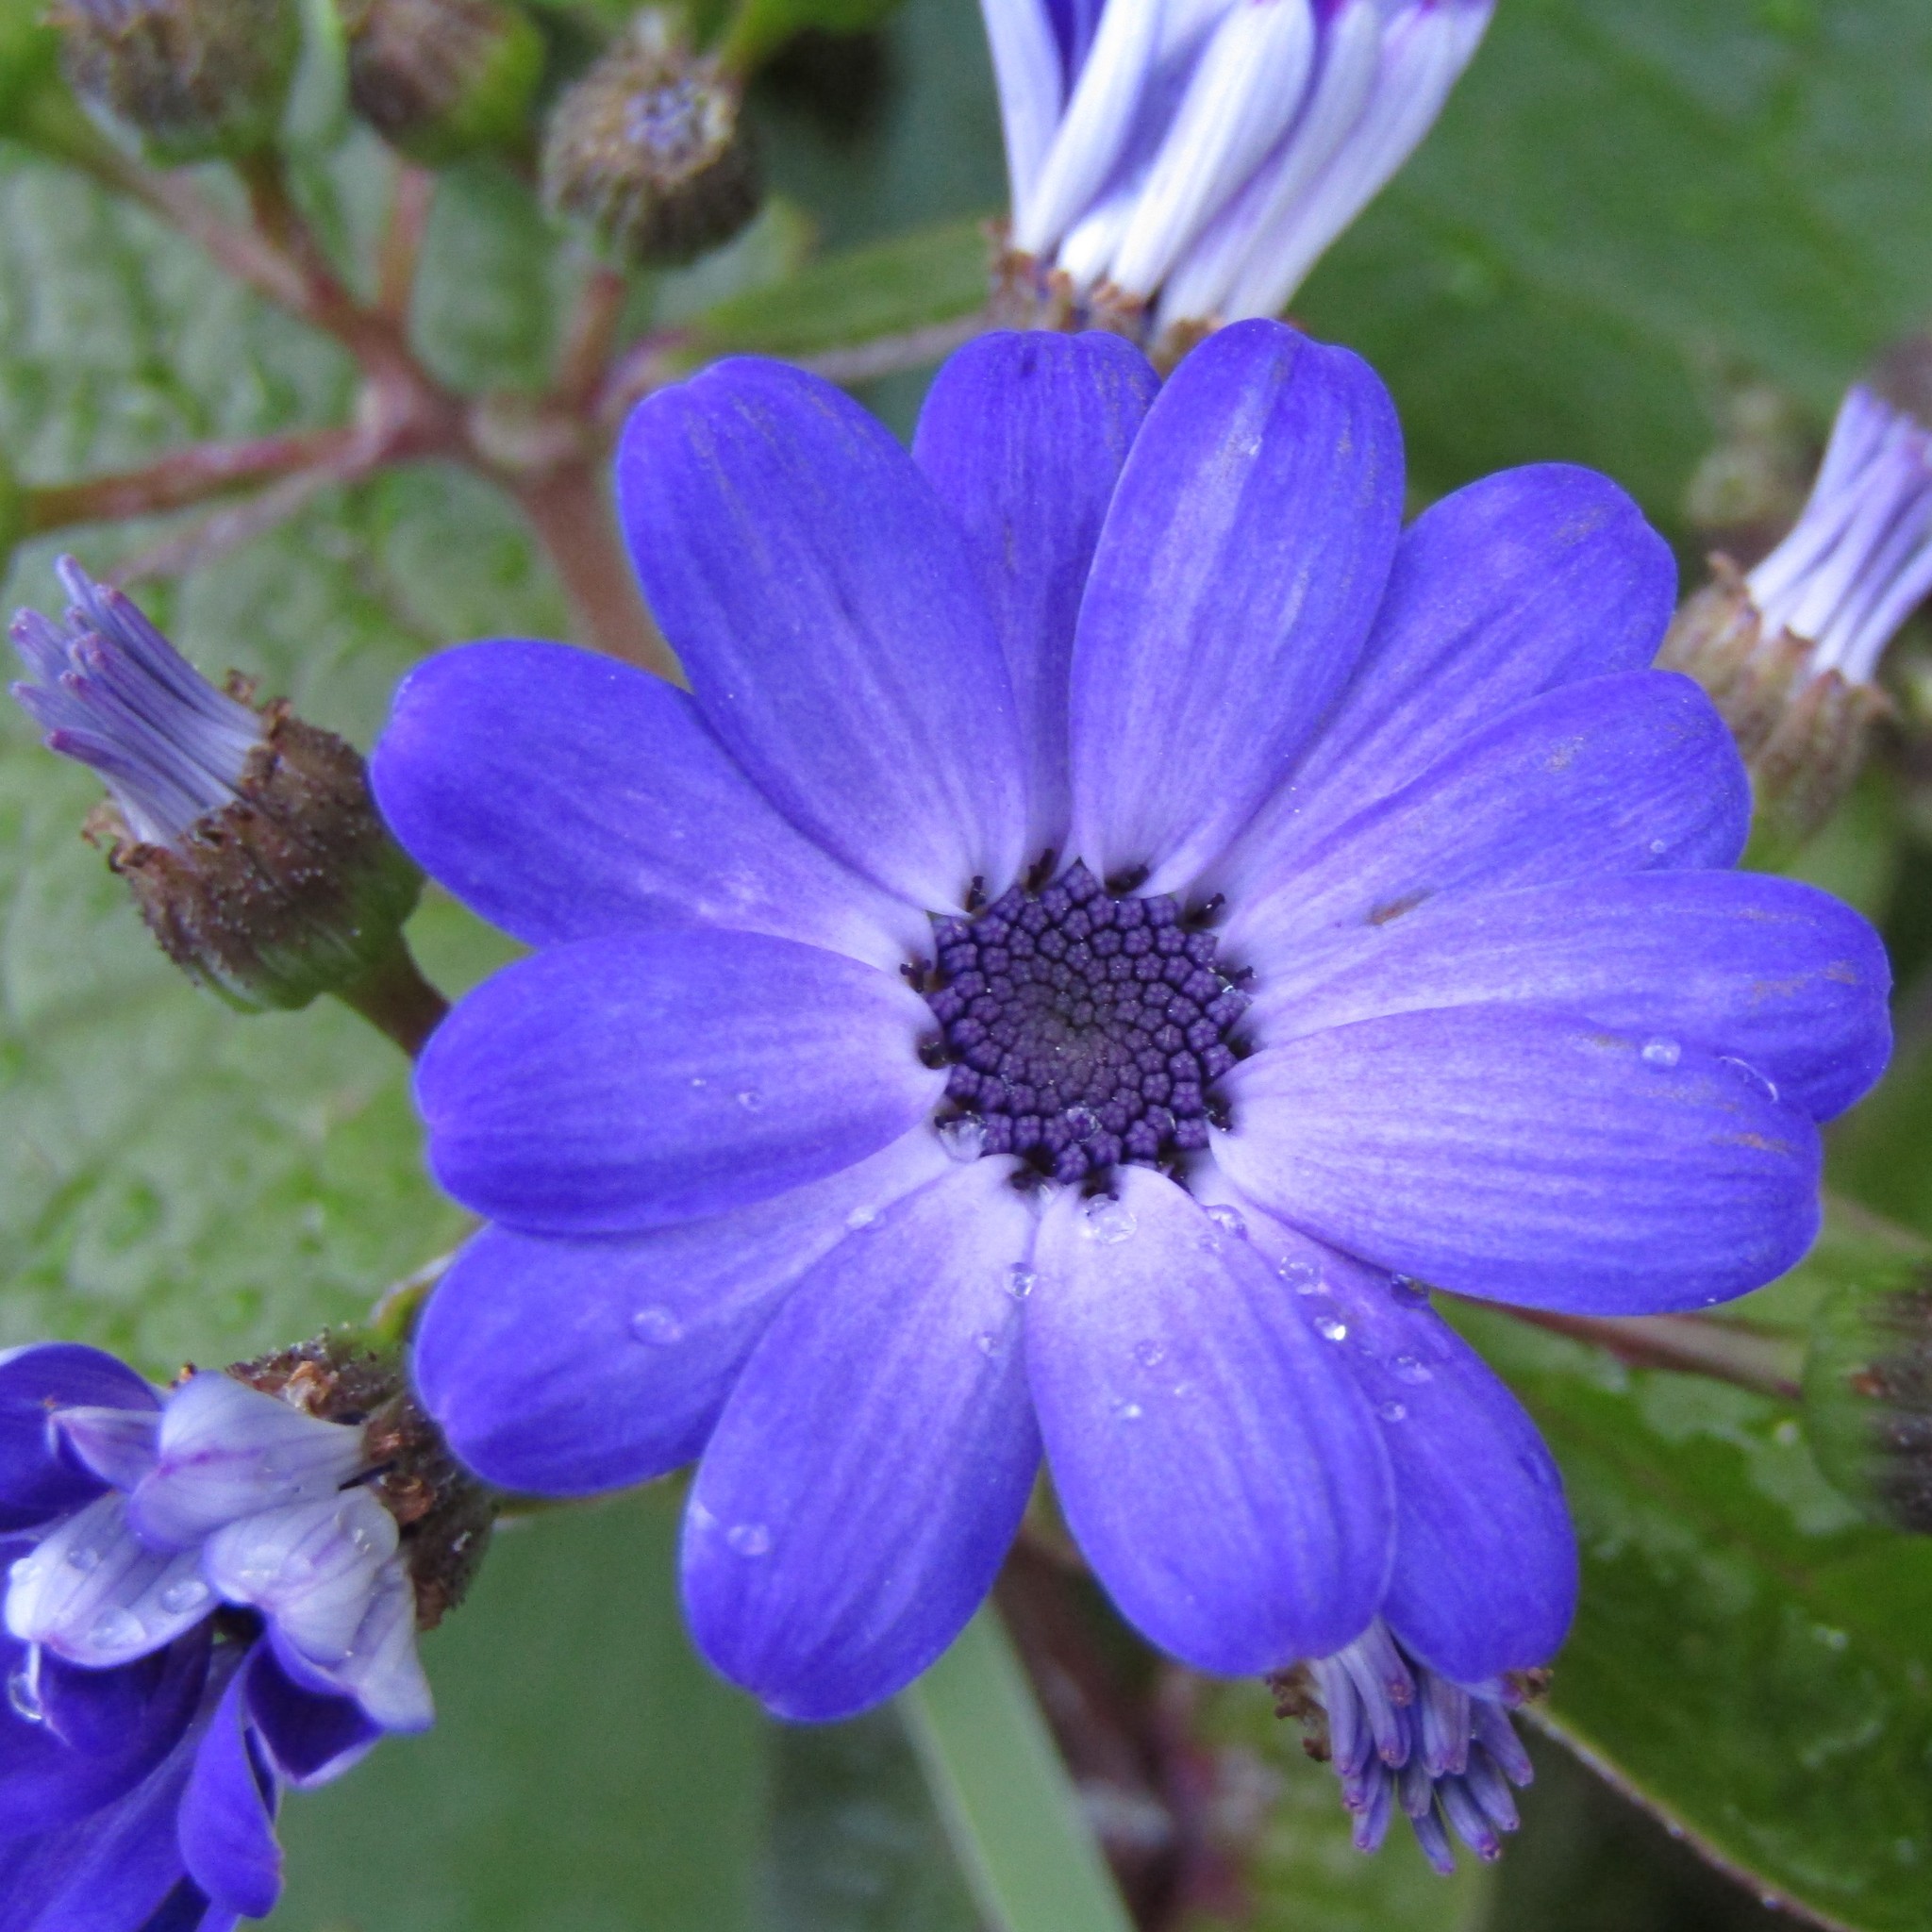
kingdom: Plantae
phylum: Tracheophyta
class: Magnoliopsida
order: Asterales
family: Asteraceae
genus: Pericallis
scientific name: Pericallis hybrida
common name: Cineraria
